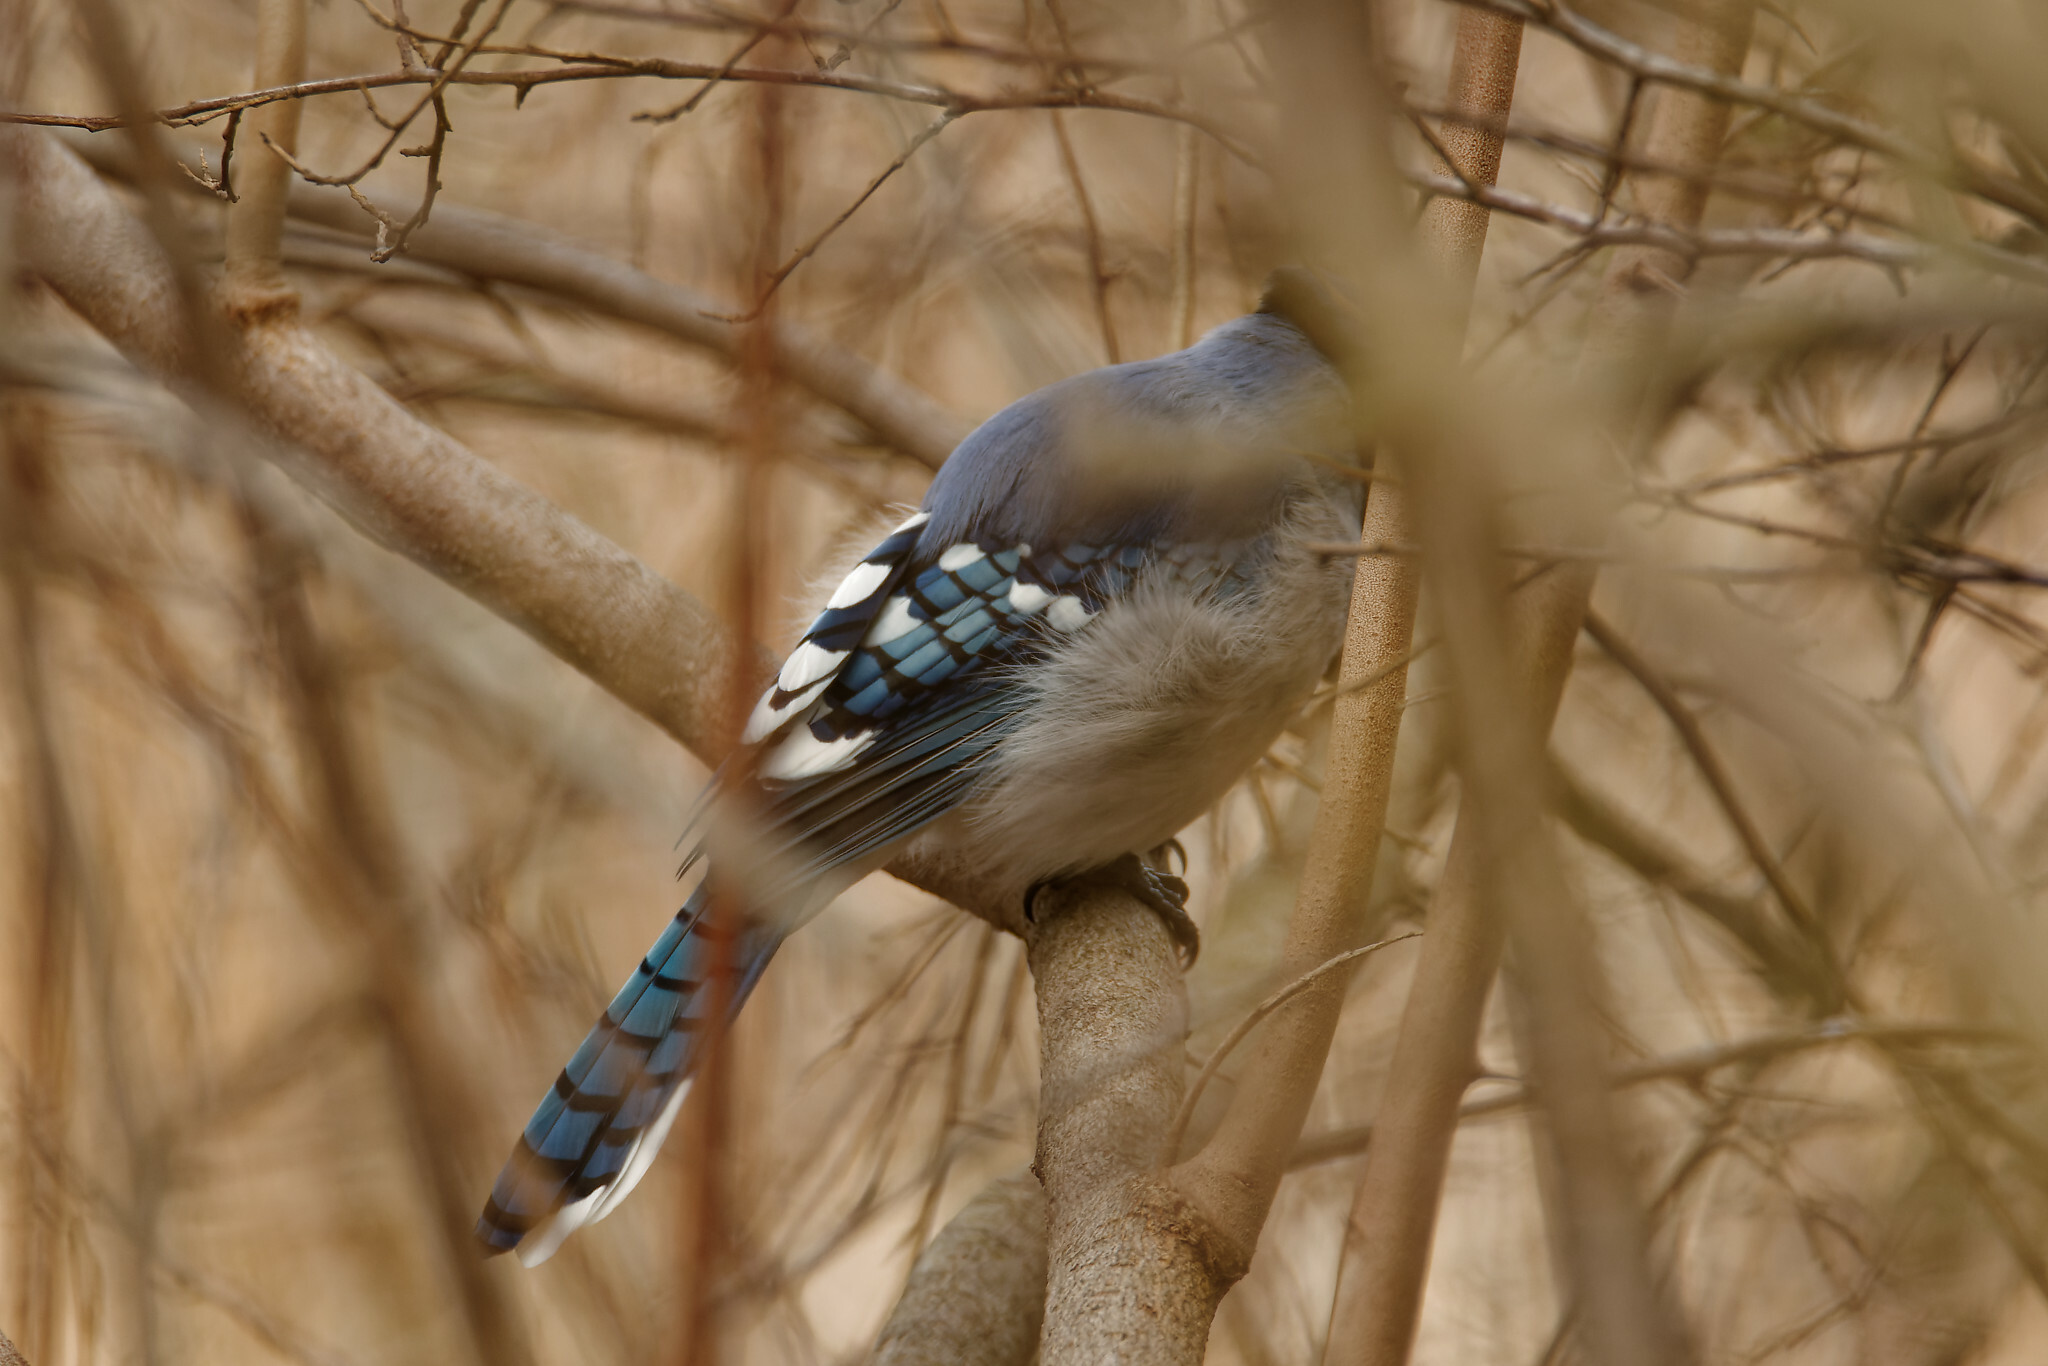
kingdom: Animalia
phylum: Chordata
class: Aves
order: Passeriformes
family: Corvidae
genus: Cyanocitta
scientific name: Cyanocitta cristata
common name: Blue jay
